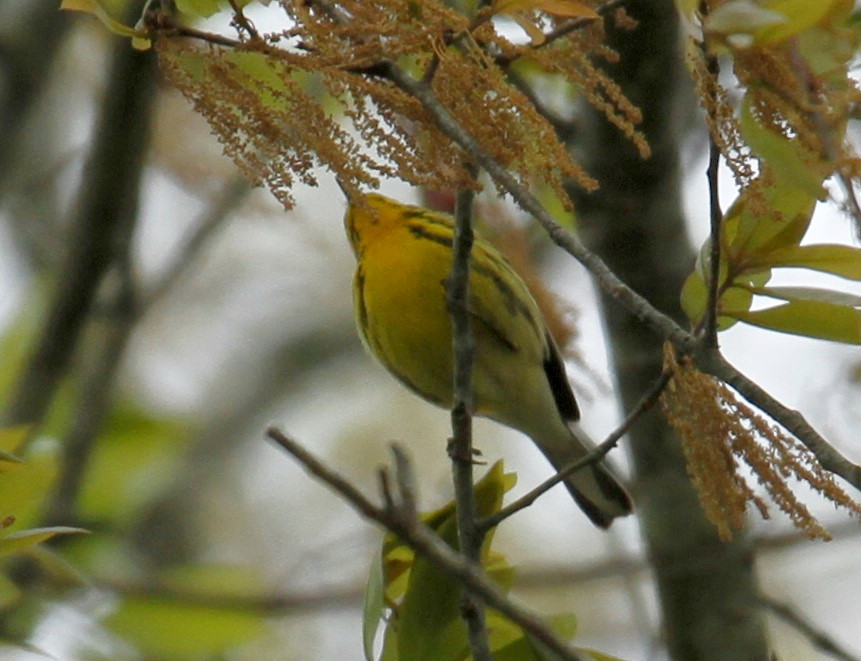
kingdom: Animalia
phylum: Chordata
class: Aves
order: Passeriformes
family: Parulidae
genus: Setophaga
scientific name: Setophaga discolor
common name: Prairie warbler
